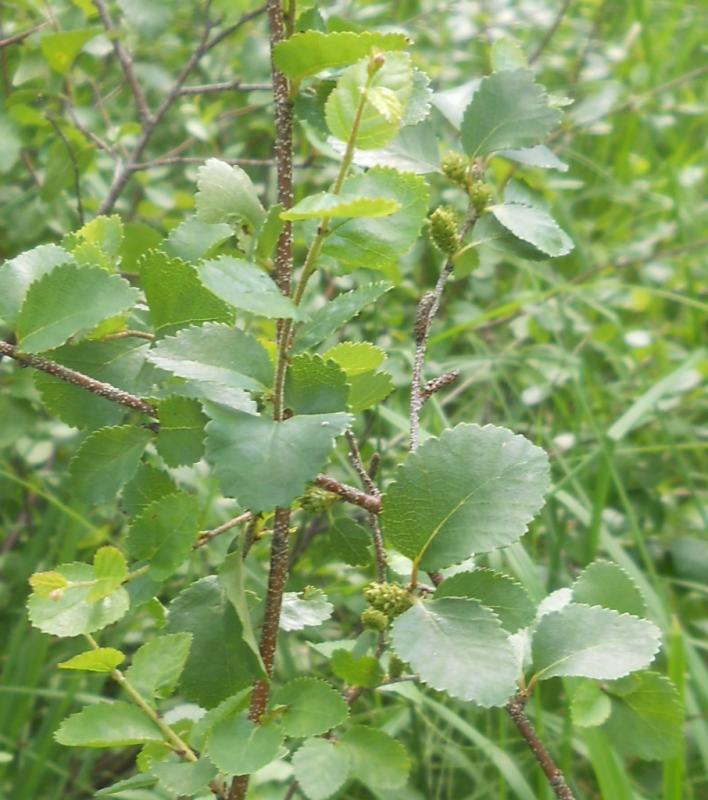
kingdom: Plantae
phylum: Tracheophyta
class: Magnoliopsida
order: Fagales
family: Betulaceae
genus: Betula
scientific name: Betula humilis
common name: Shrubby birch
